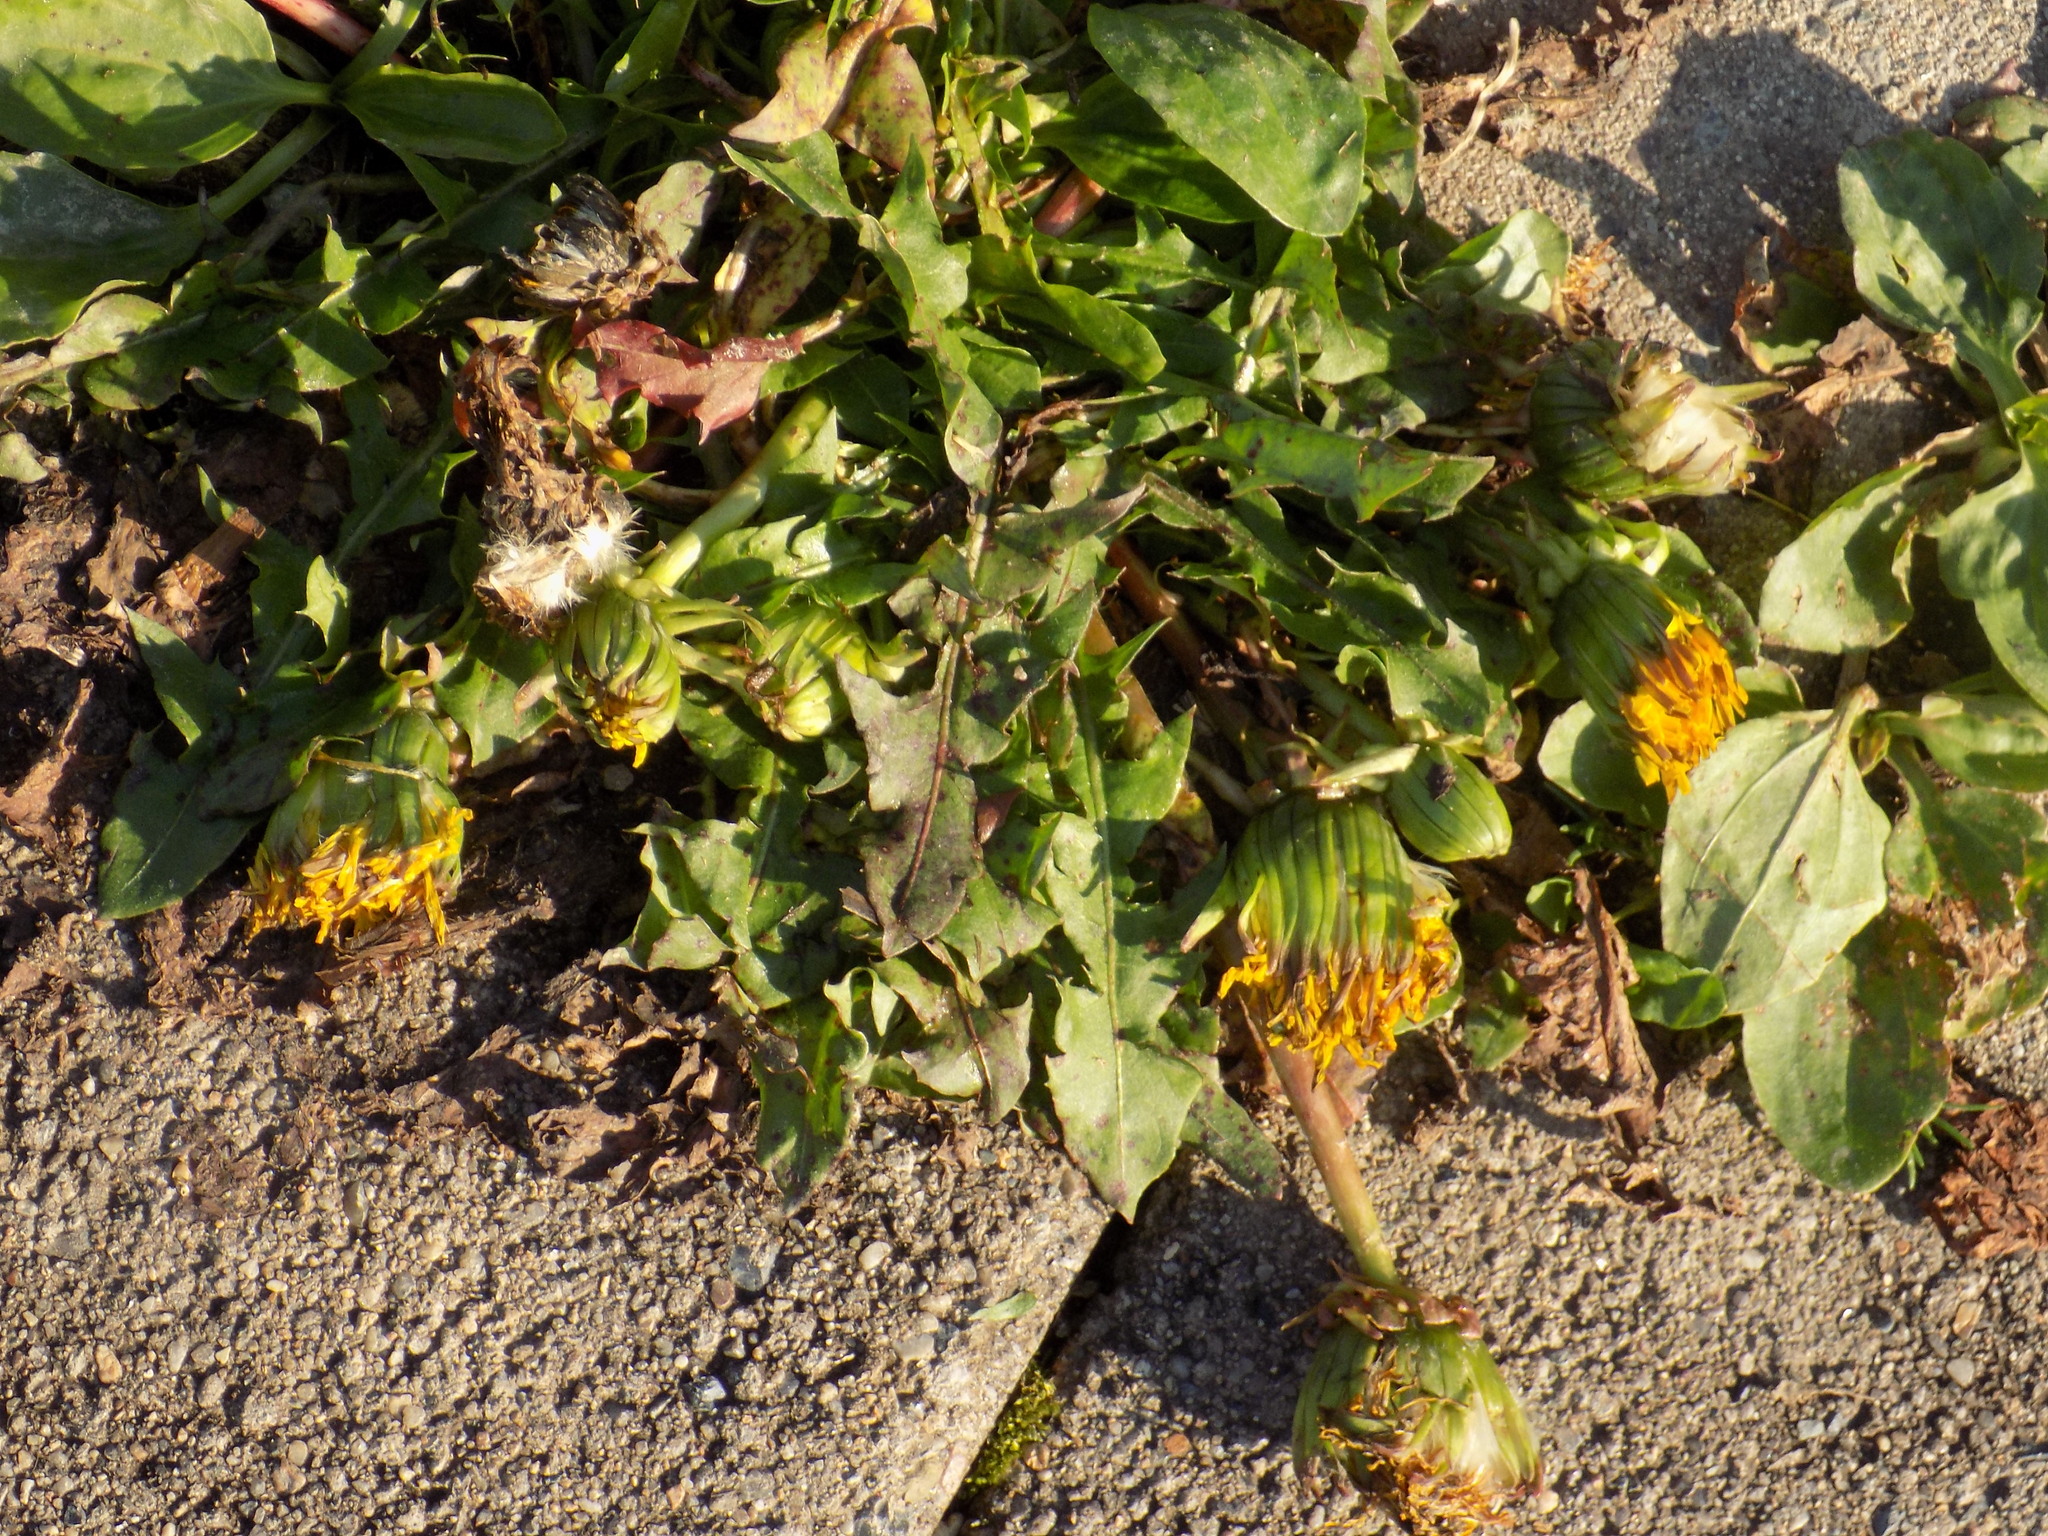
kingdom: Plantae
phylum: Tracheophyta
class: Magnoliopsida
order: Asterales
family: Asteraceae
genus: Taraxacum
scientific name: Taraxacum
